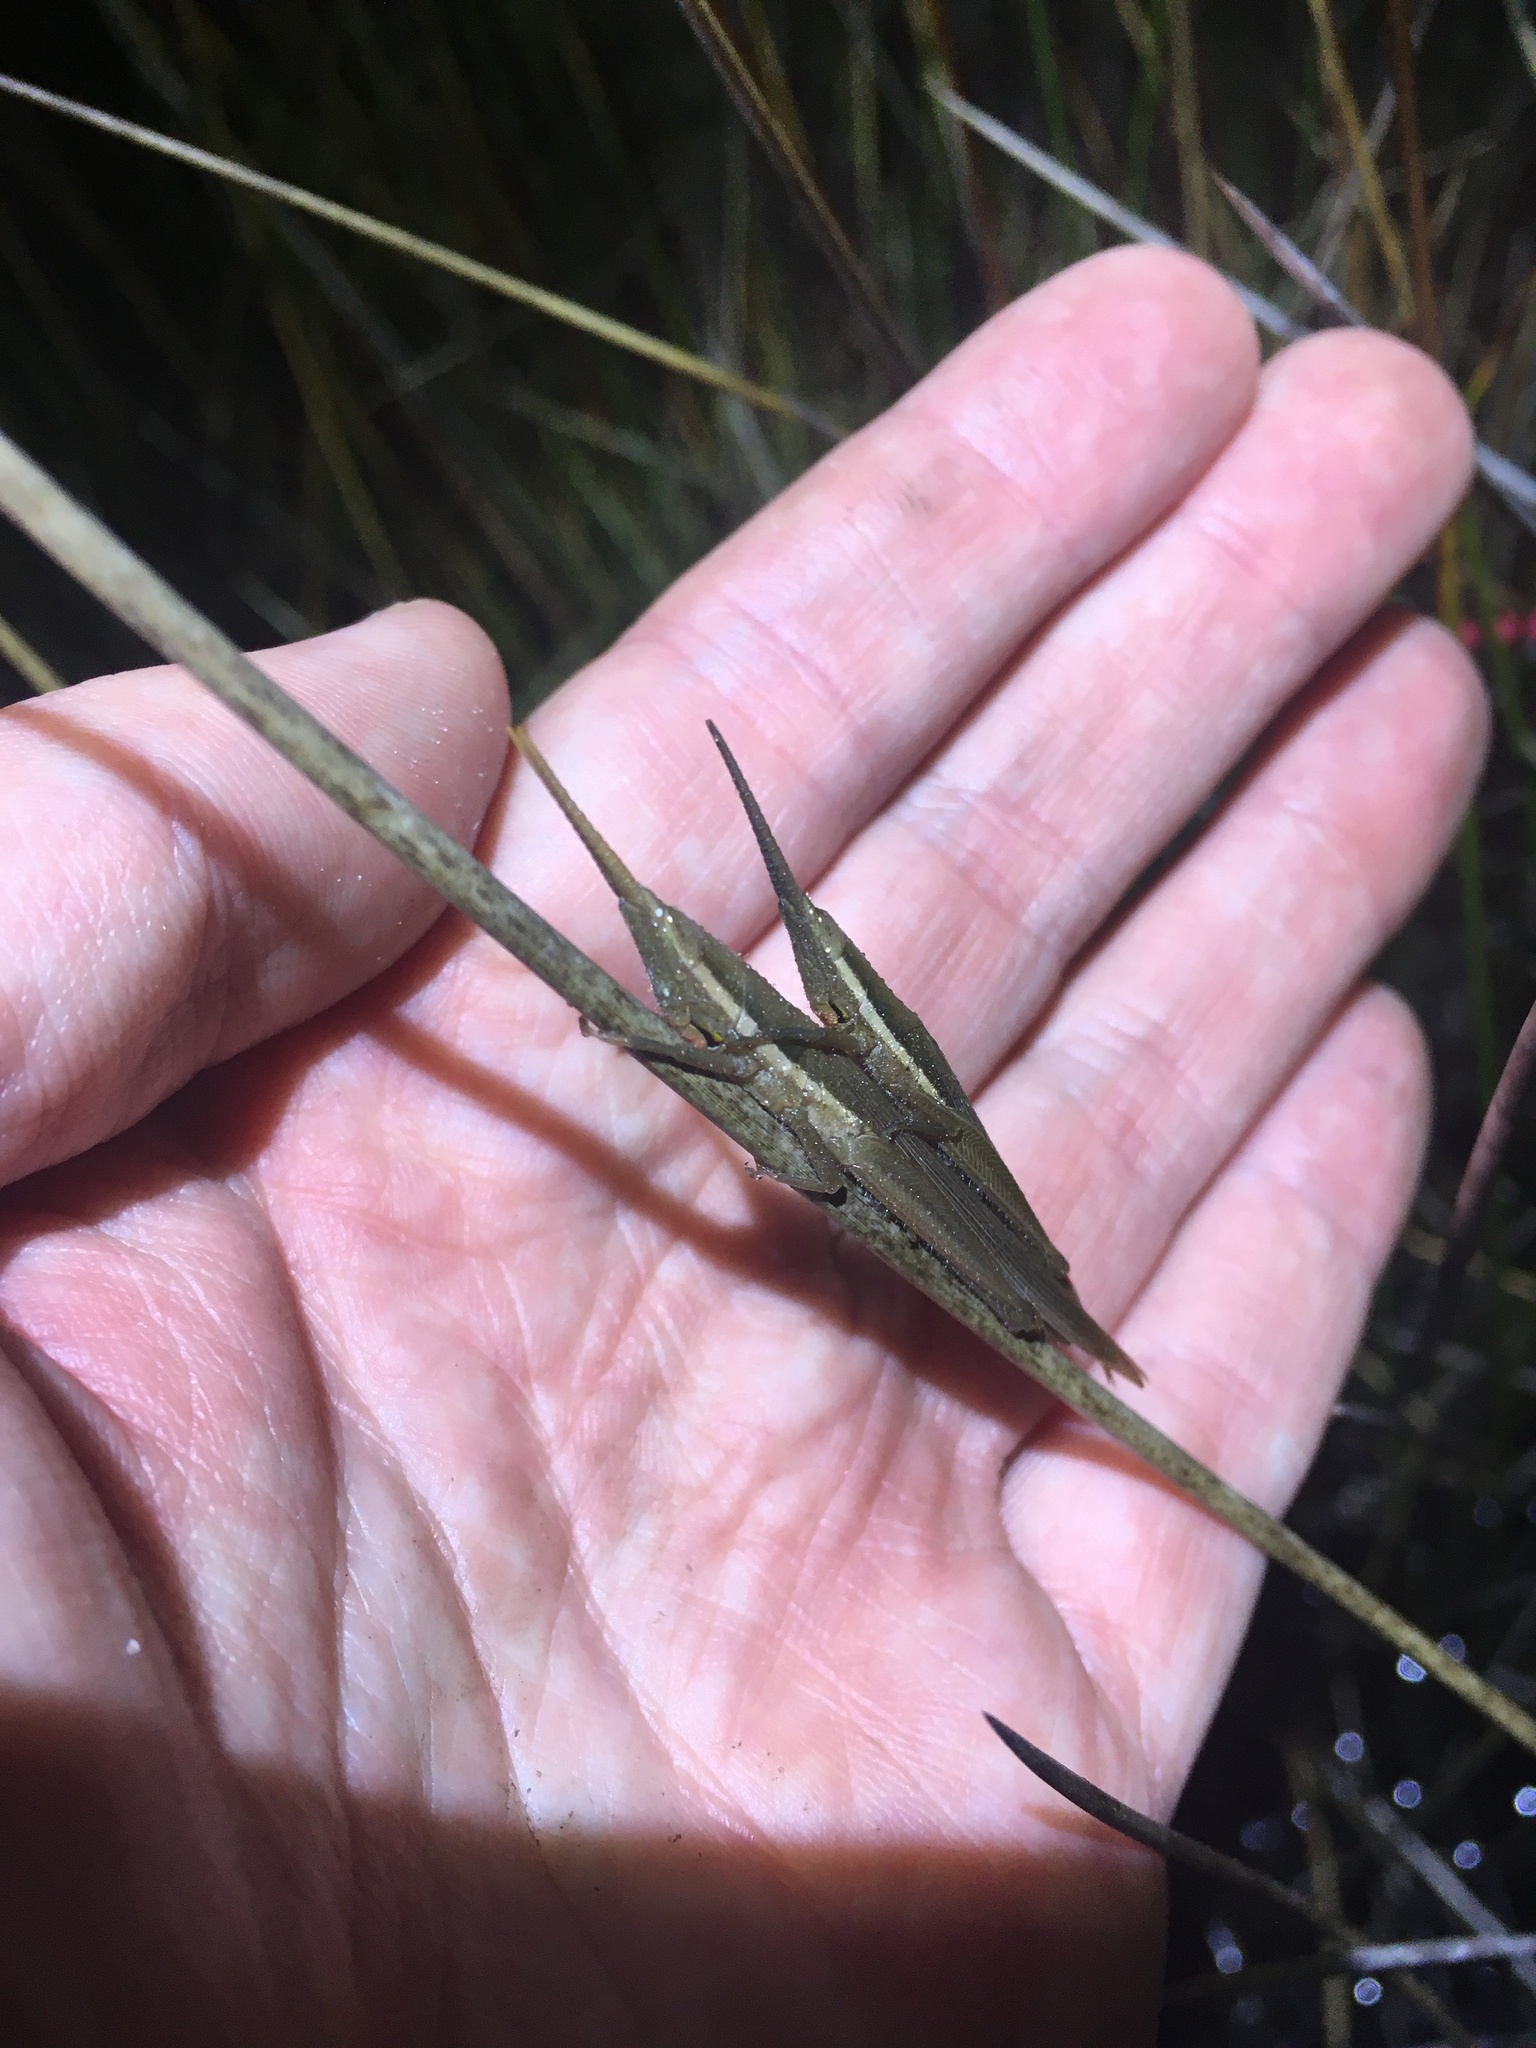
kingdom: Animalia
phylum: Arthropoda
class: Insecta
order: Orthoptera
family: Acrididae
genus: Leptysma
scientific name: Leptysma marginicollis
